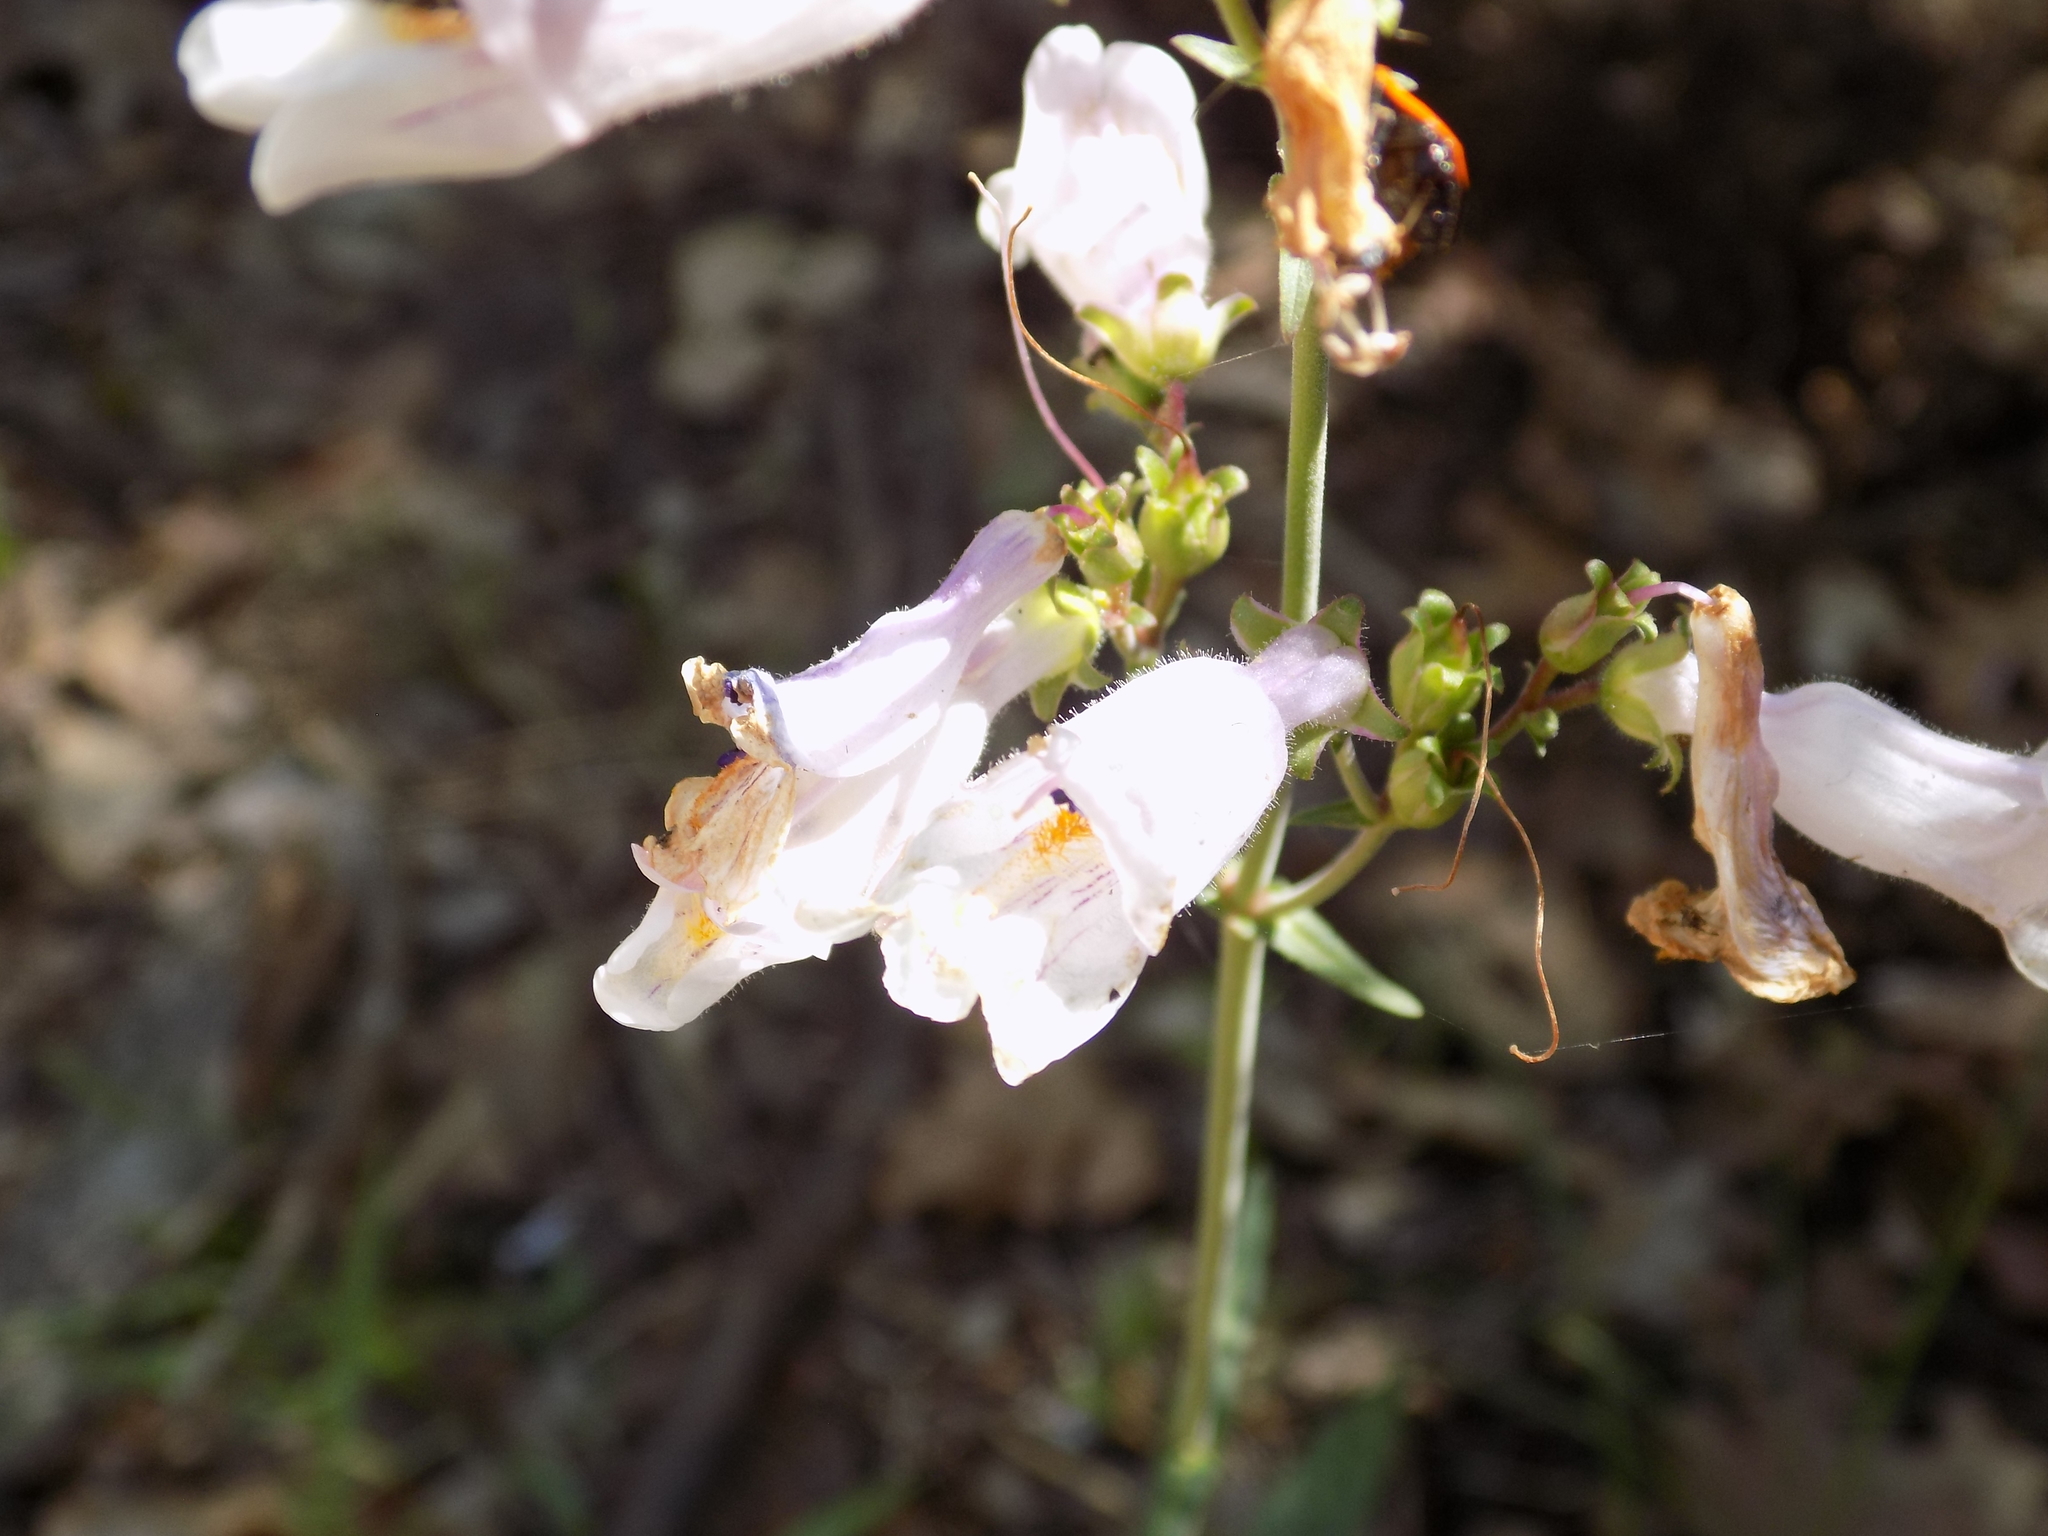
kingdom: Plantae
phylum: Tracheophyta
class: Magnoliopsida
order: Lamiales
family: Plantaginaceae
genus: Penstemon
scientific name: Penstemon laxiflorus
